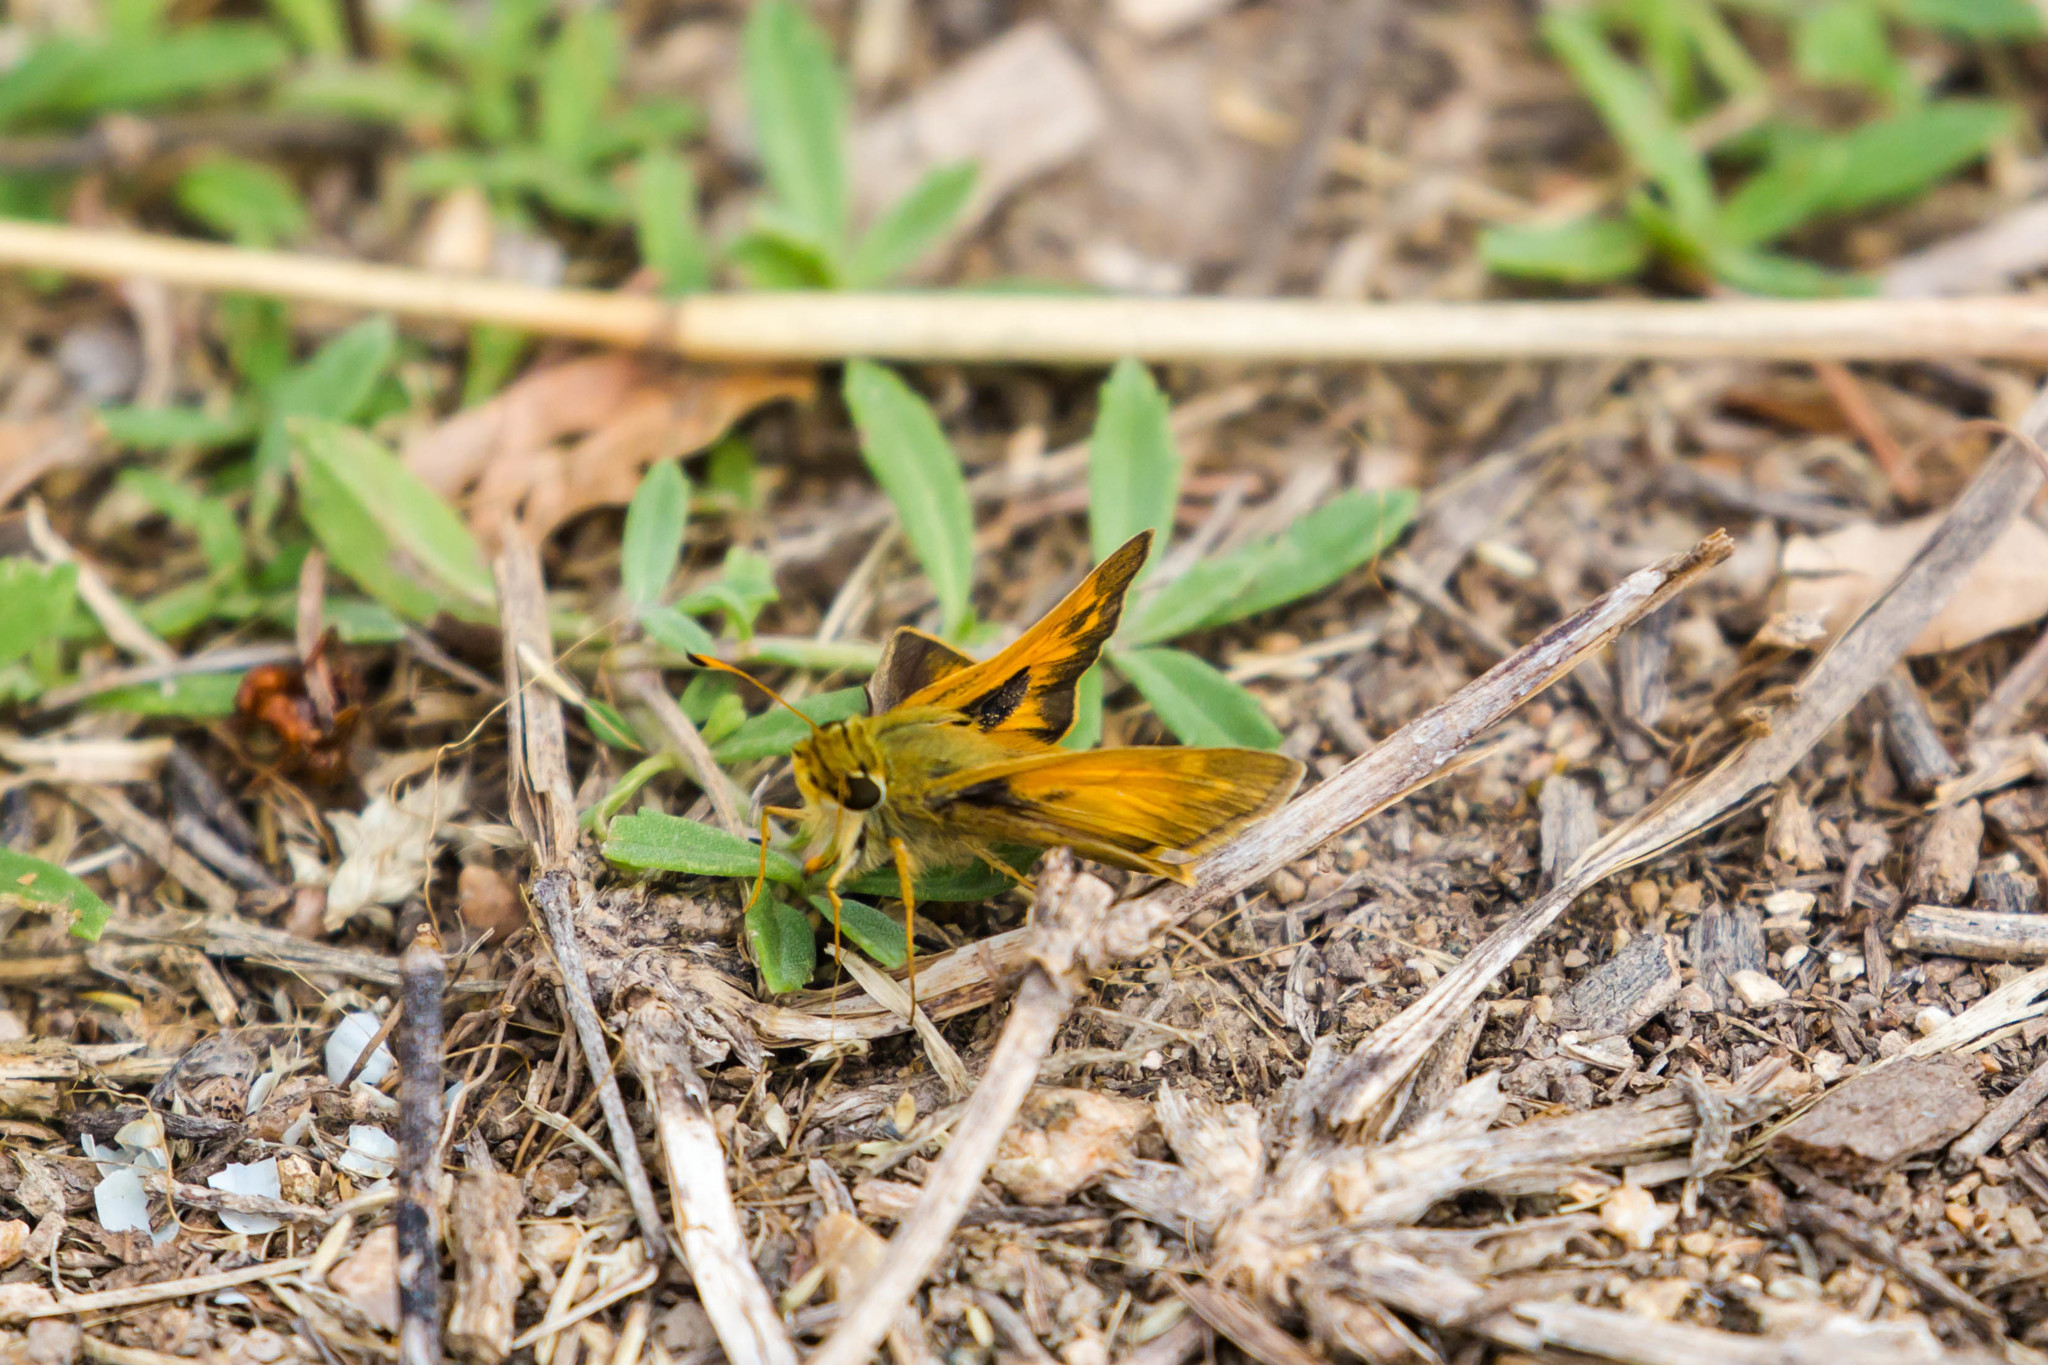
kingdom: Animalia
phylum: Arthropoda
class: Insecta
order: Lepidoptera
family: Hesperiidae
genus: Atalopedes
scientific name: Atalopedes
